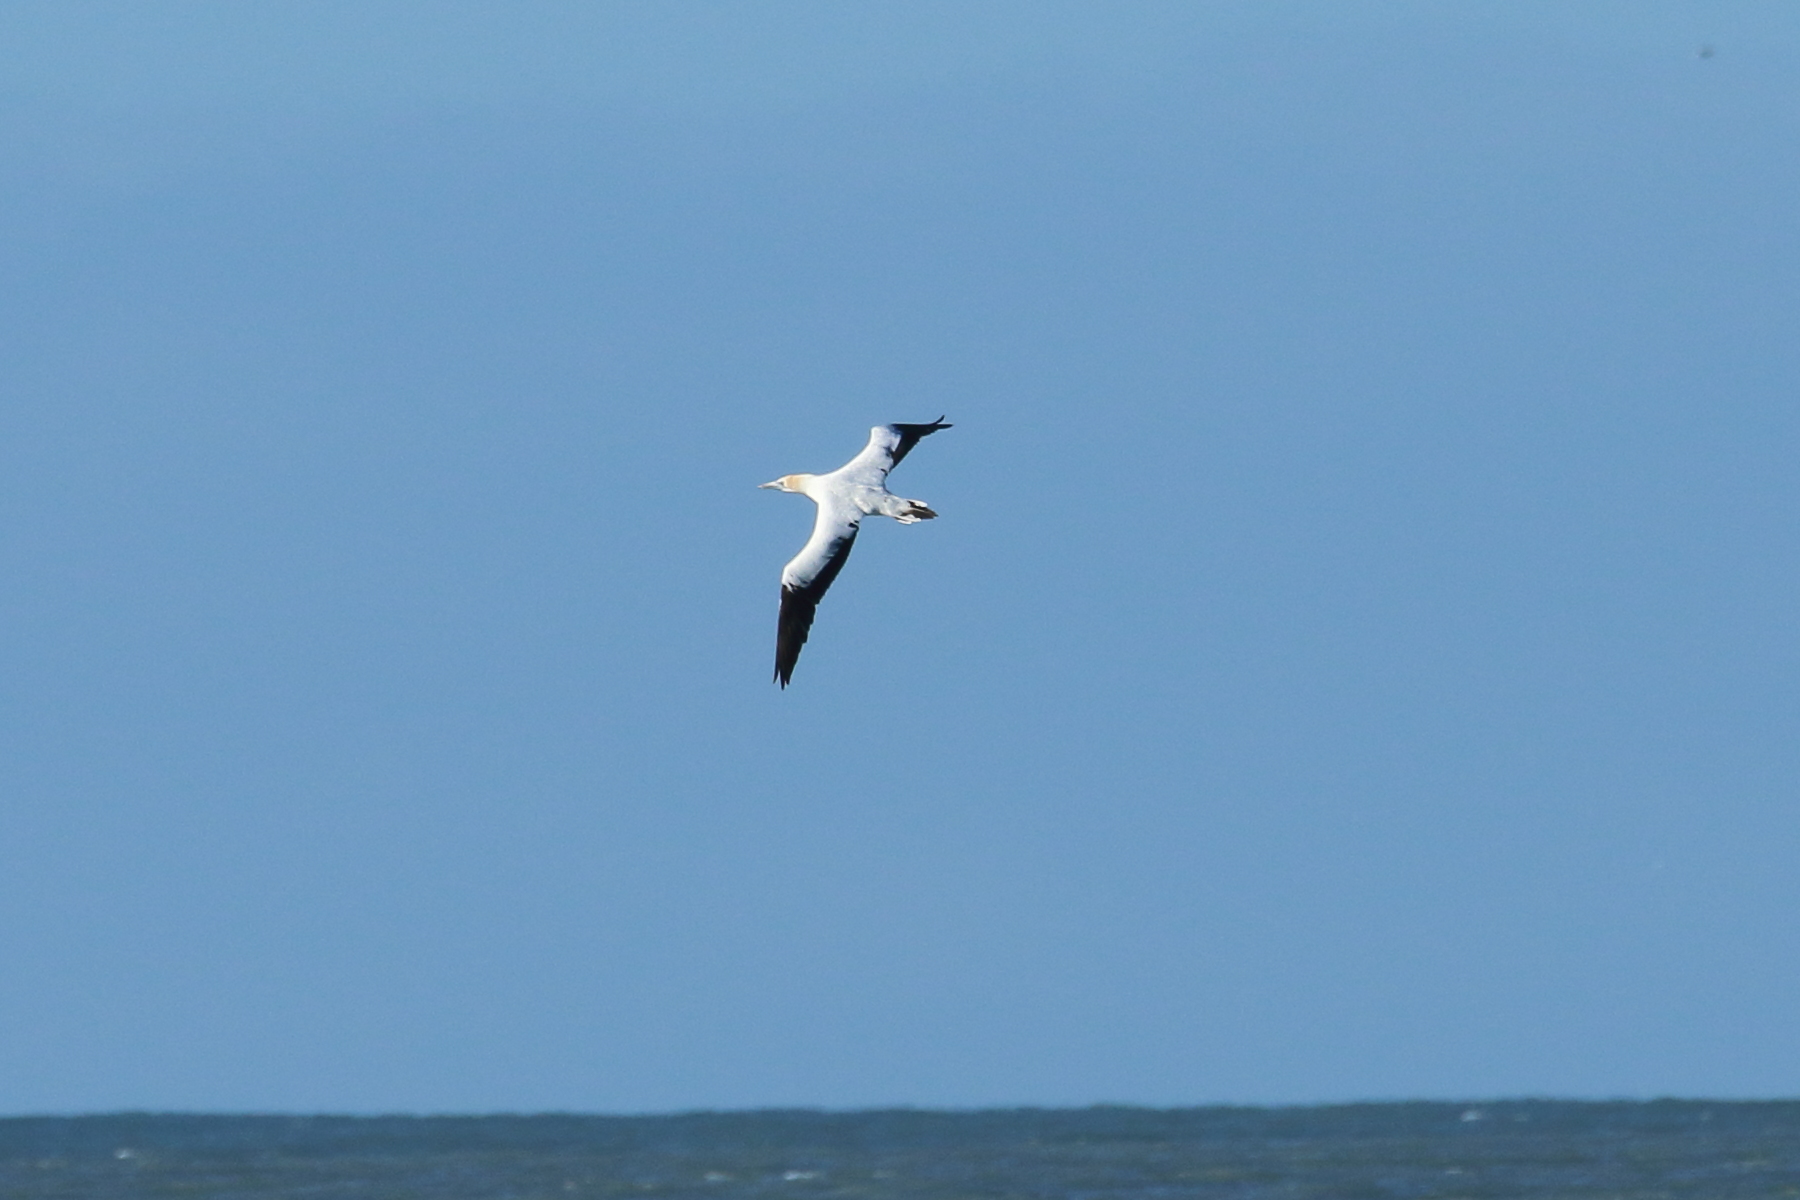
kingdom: Animalia
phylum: Chordata
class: Aves
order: Suliformes
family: Sulidae
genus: Morus
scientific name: Morus serrator
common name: Australasian gannet
